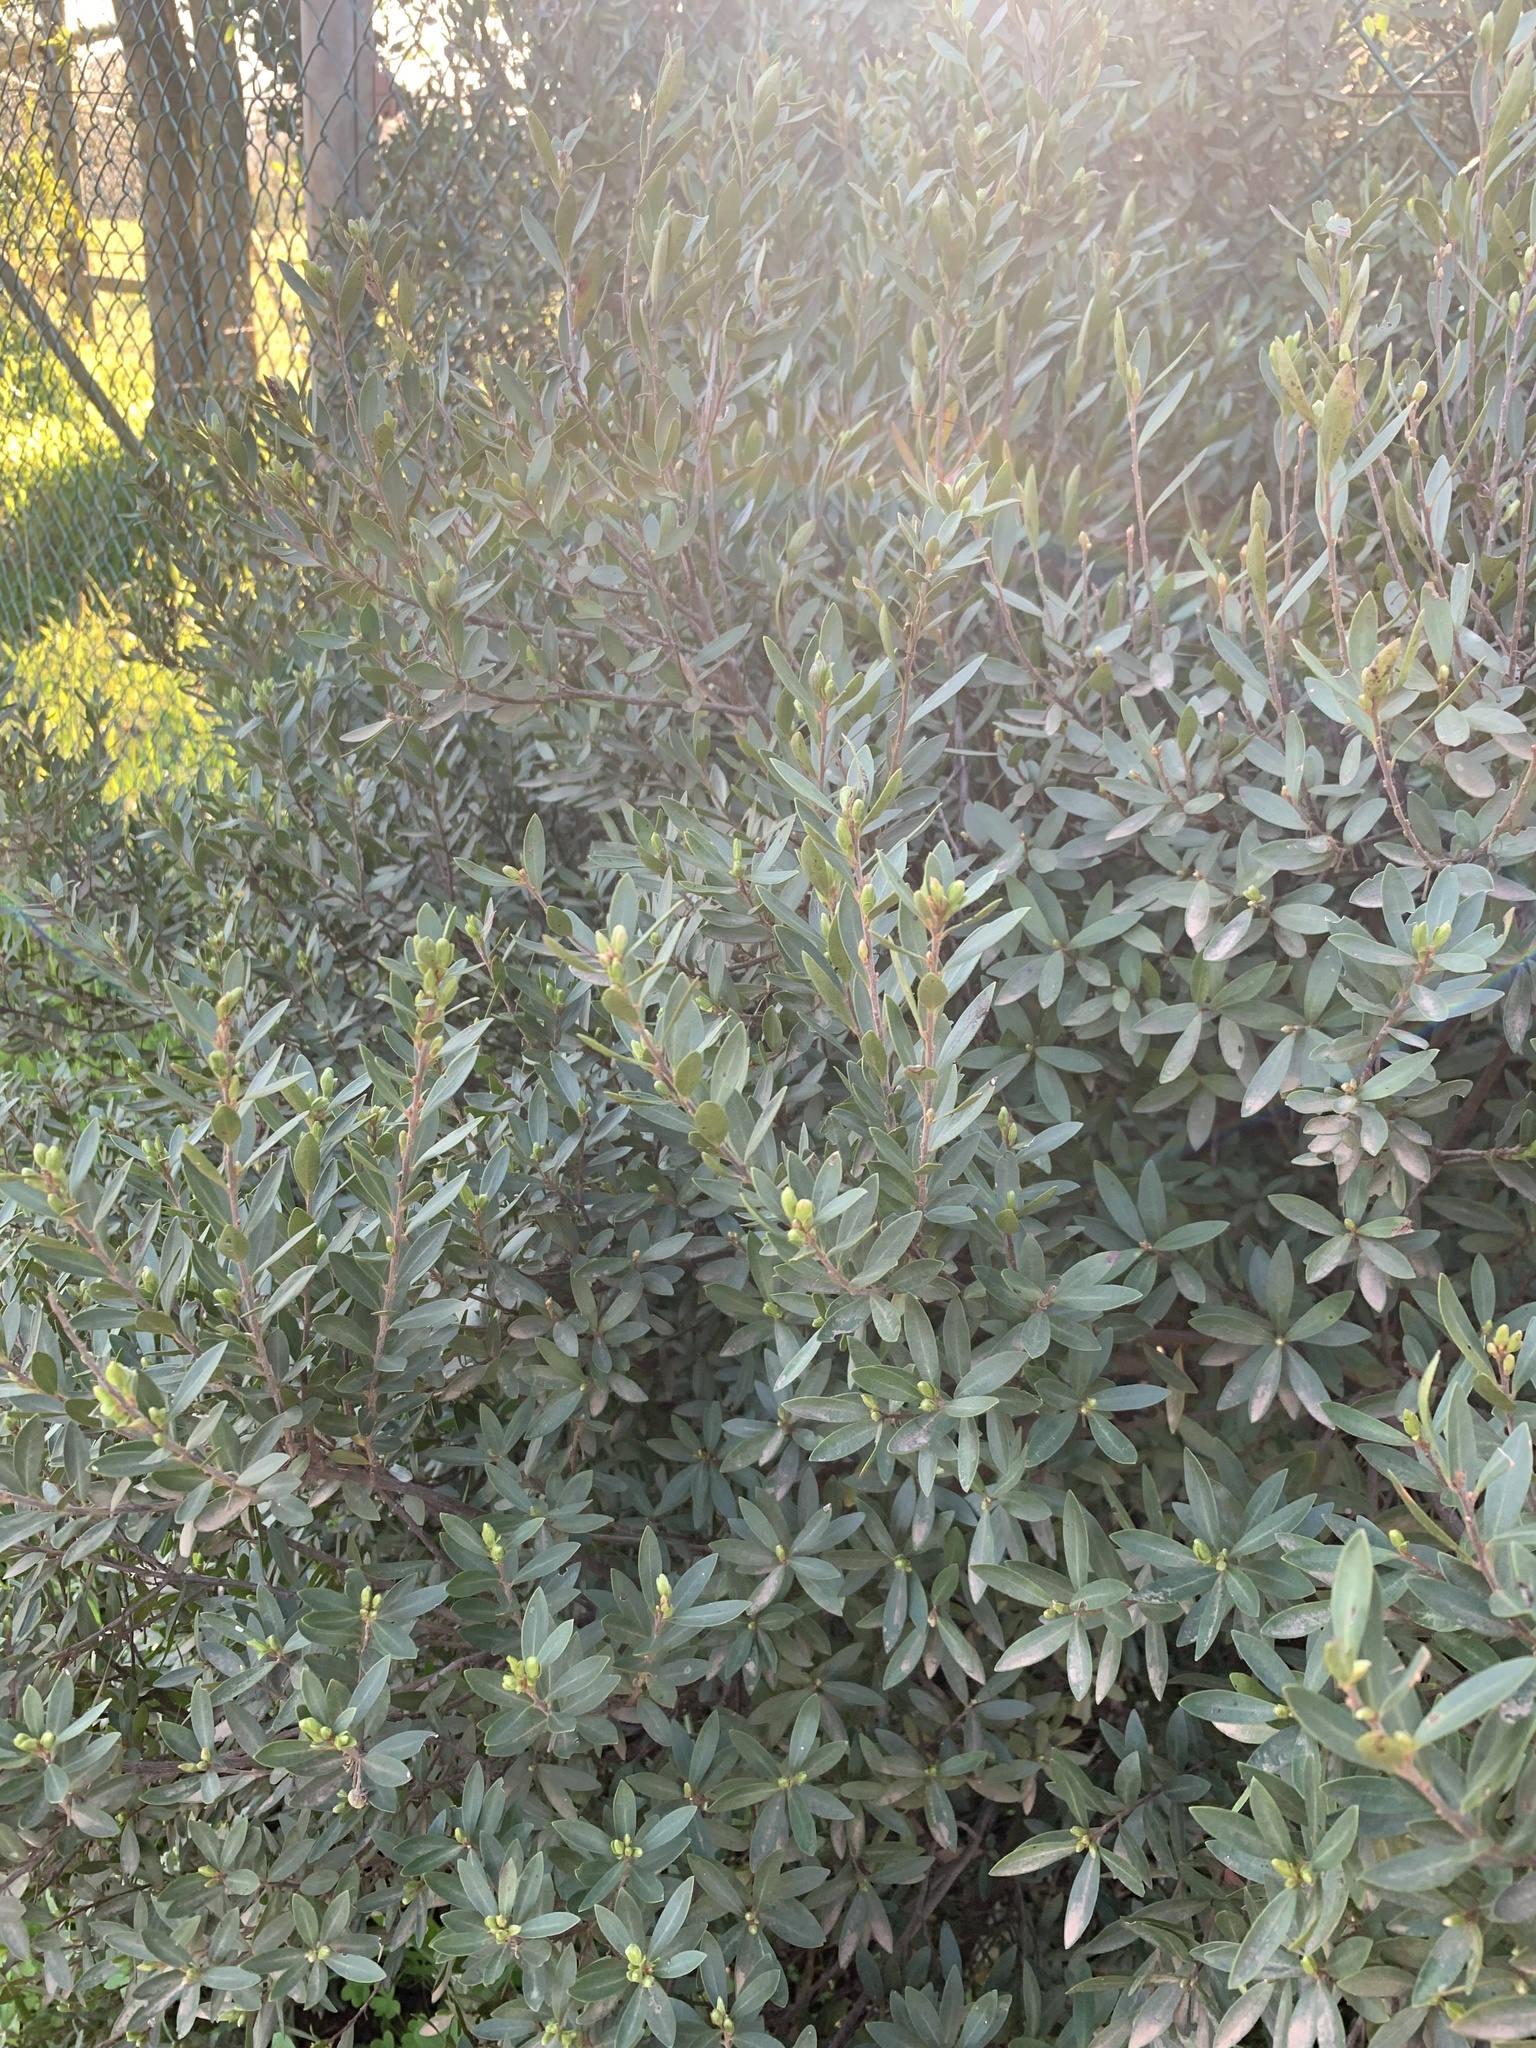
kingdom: Plantae
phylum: Tracheophyta
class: Magnoliopsida
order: Ericales
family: Ebenaceae
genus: Diospyros
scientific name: Diospyros glabra
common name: Fynbos star apple
